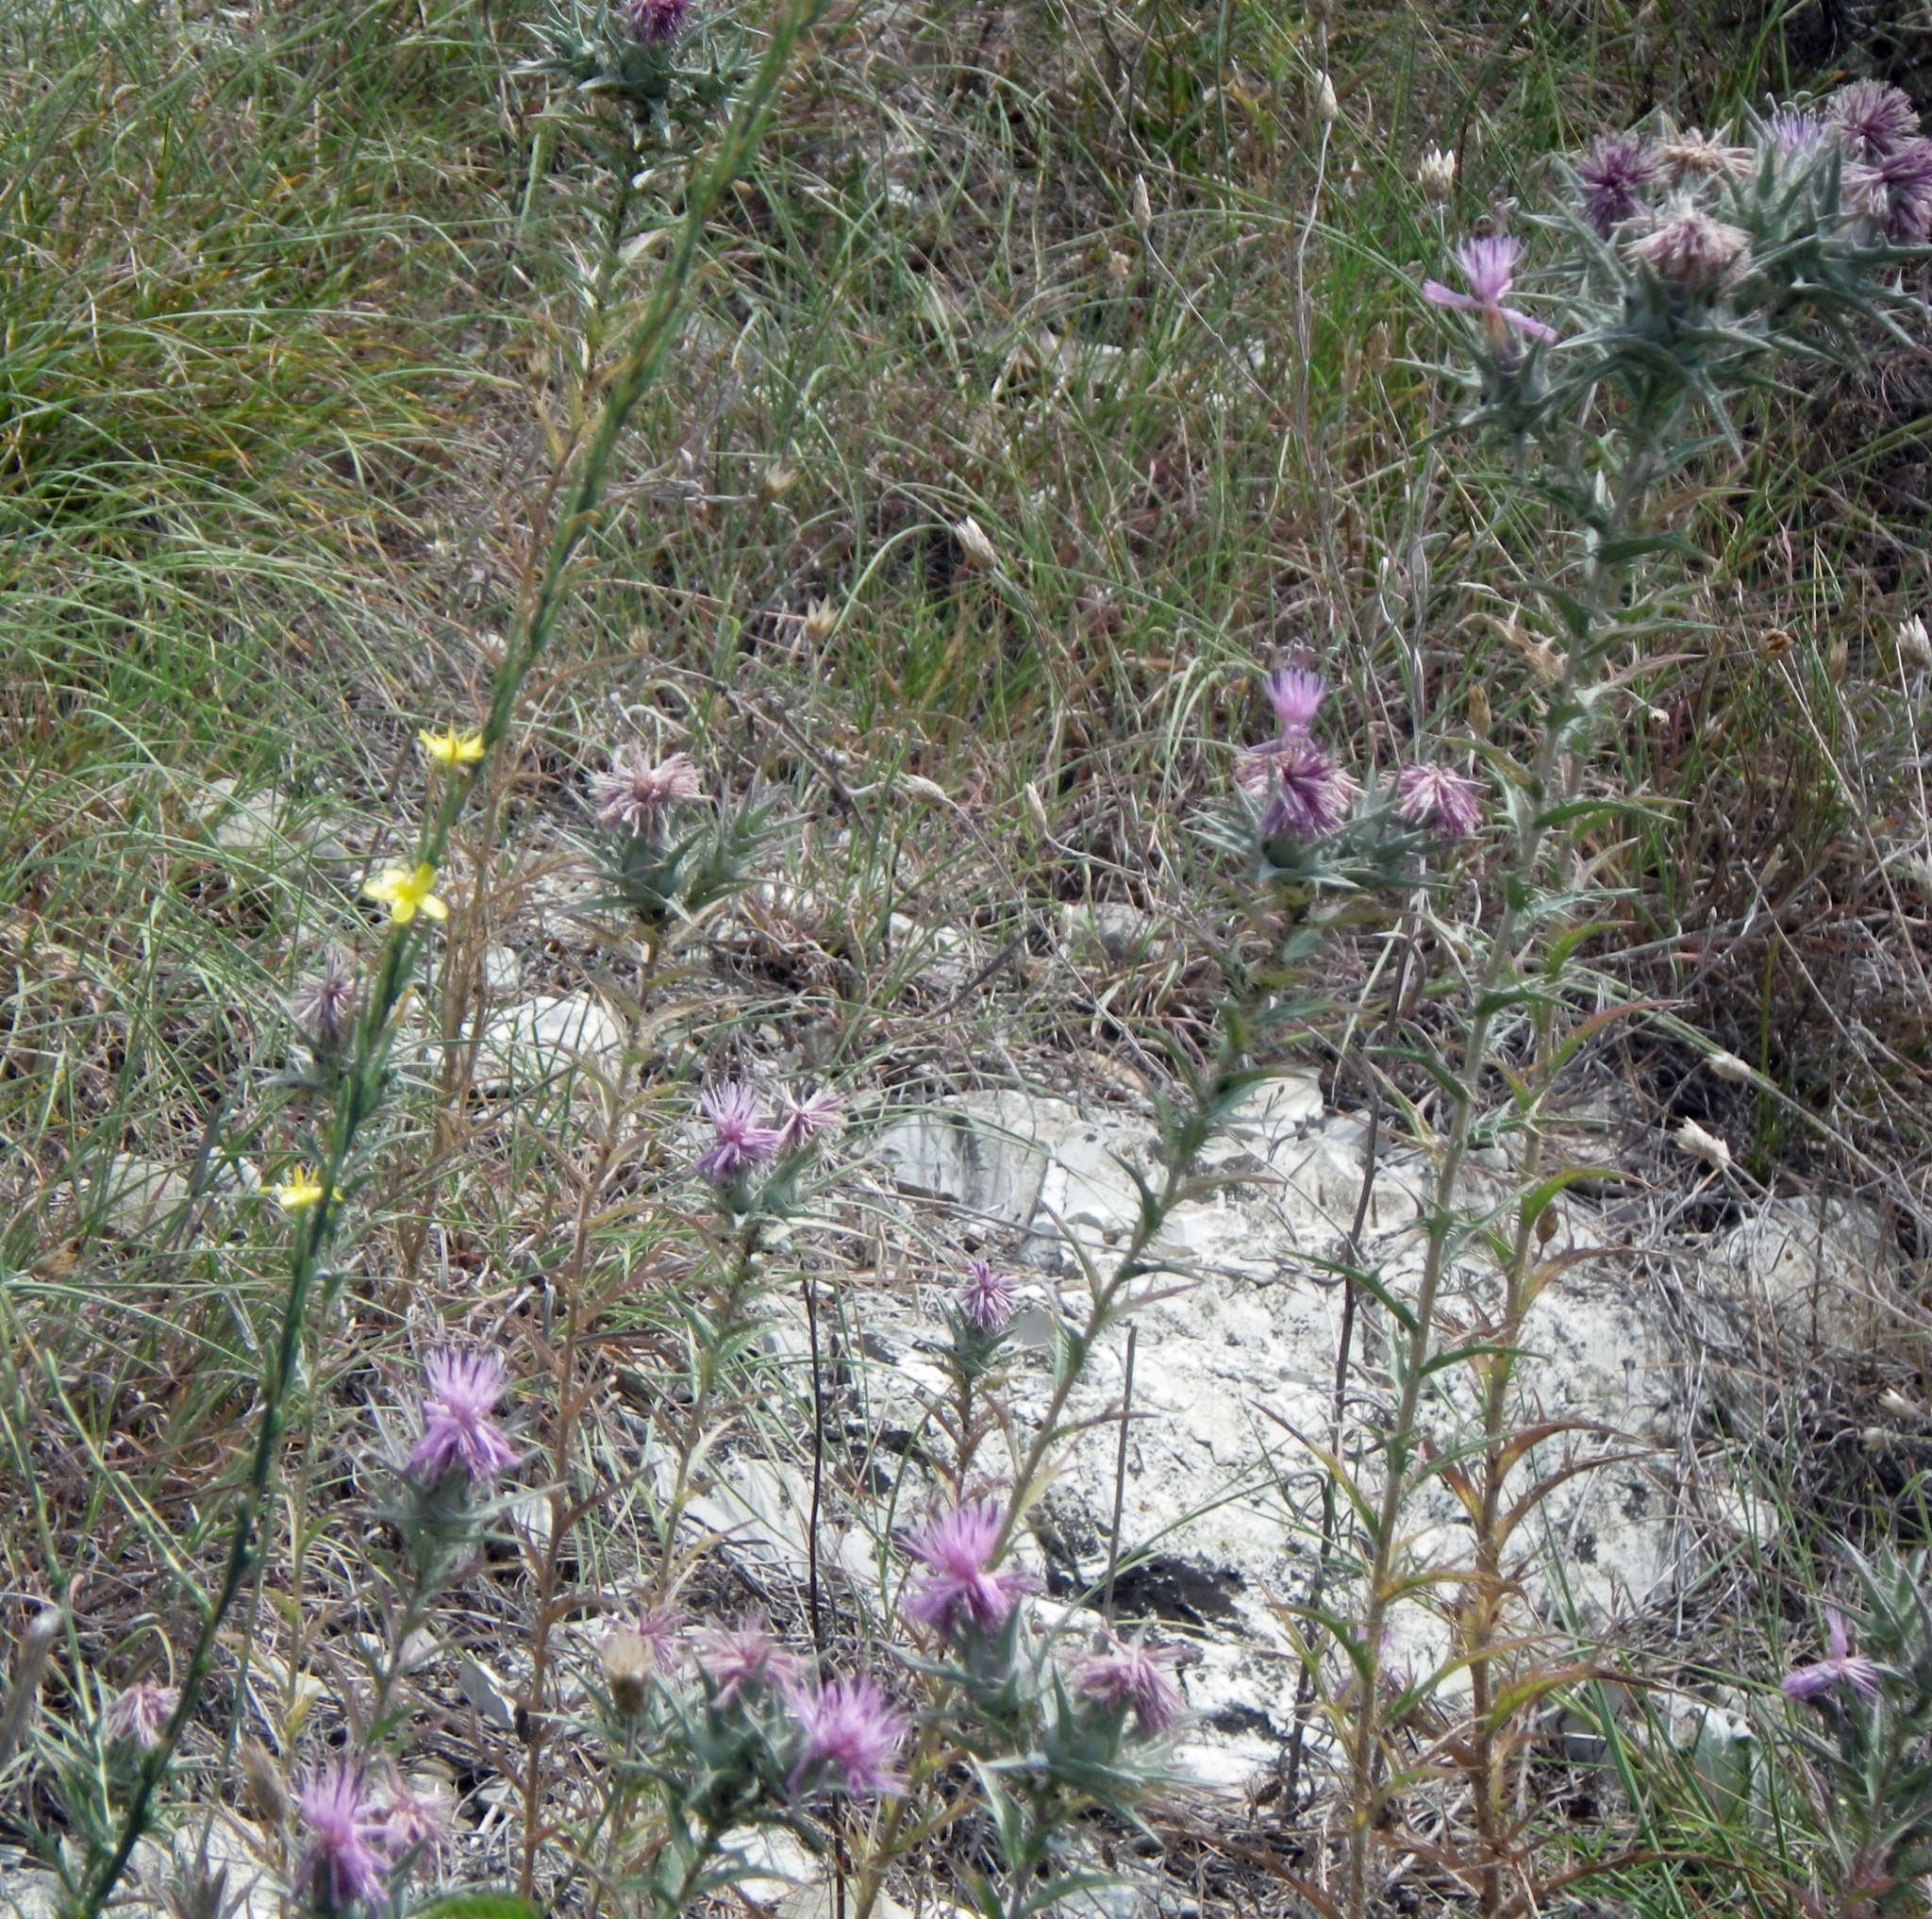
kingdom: Plantae
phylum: Tracheophyta
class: Magnoliopsida
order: Asterales
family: Asteraceae
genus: Carthamus
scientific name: Carthamus glaucus
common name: Mediterranean thistle
